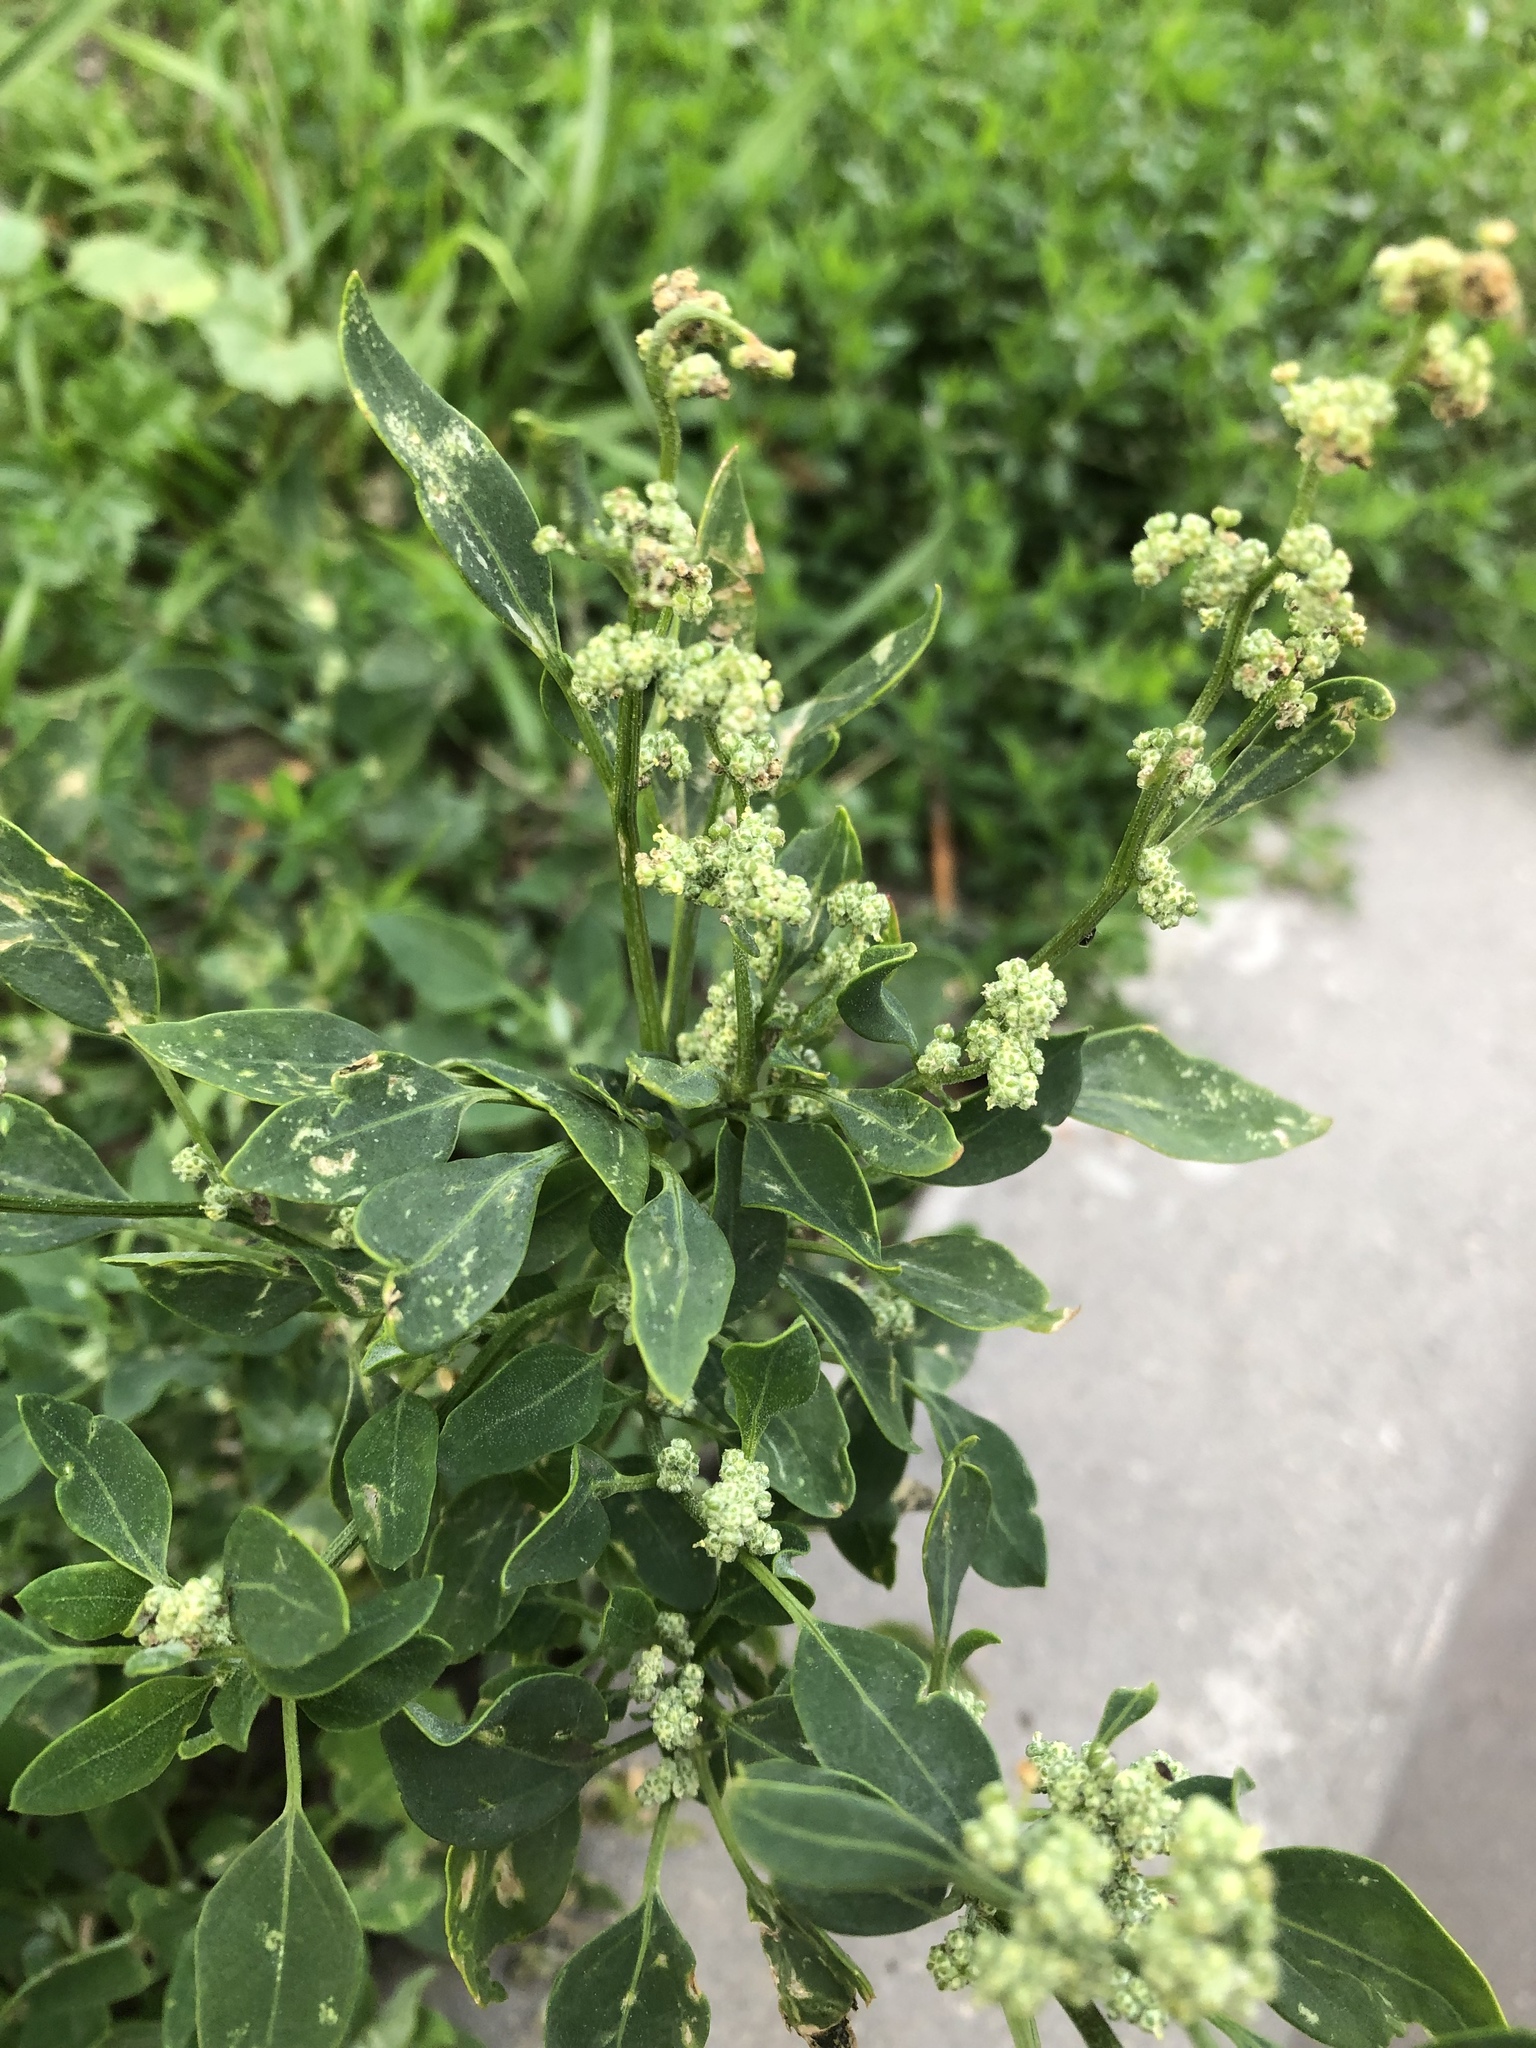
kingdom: Plantae
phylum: Tracheophyta
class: Magnoliopsida
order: Caryophyllales
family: Amaranthaceae
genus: Chenopodium
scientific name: Chenopodium album
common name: Fat-hen
